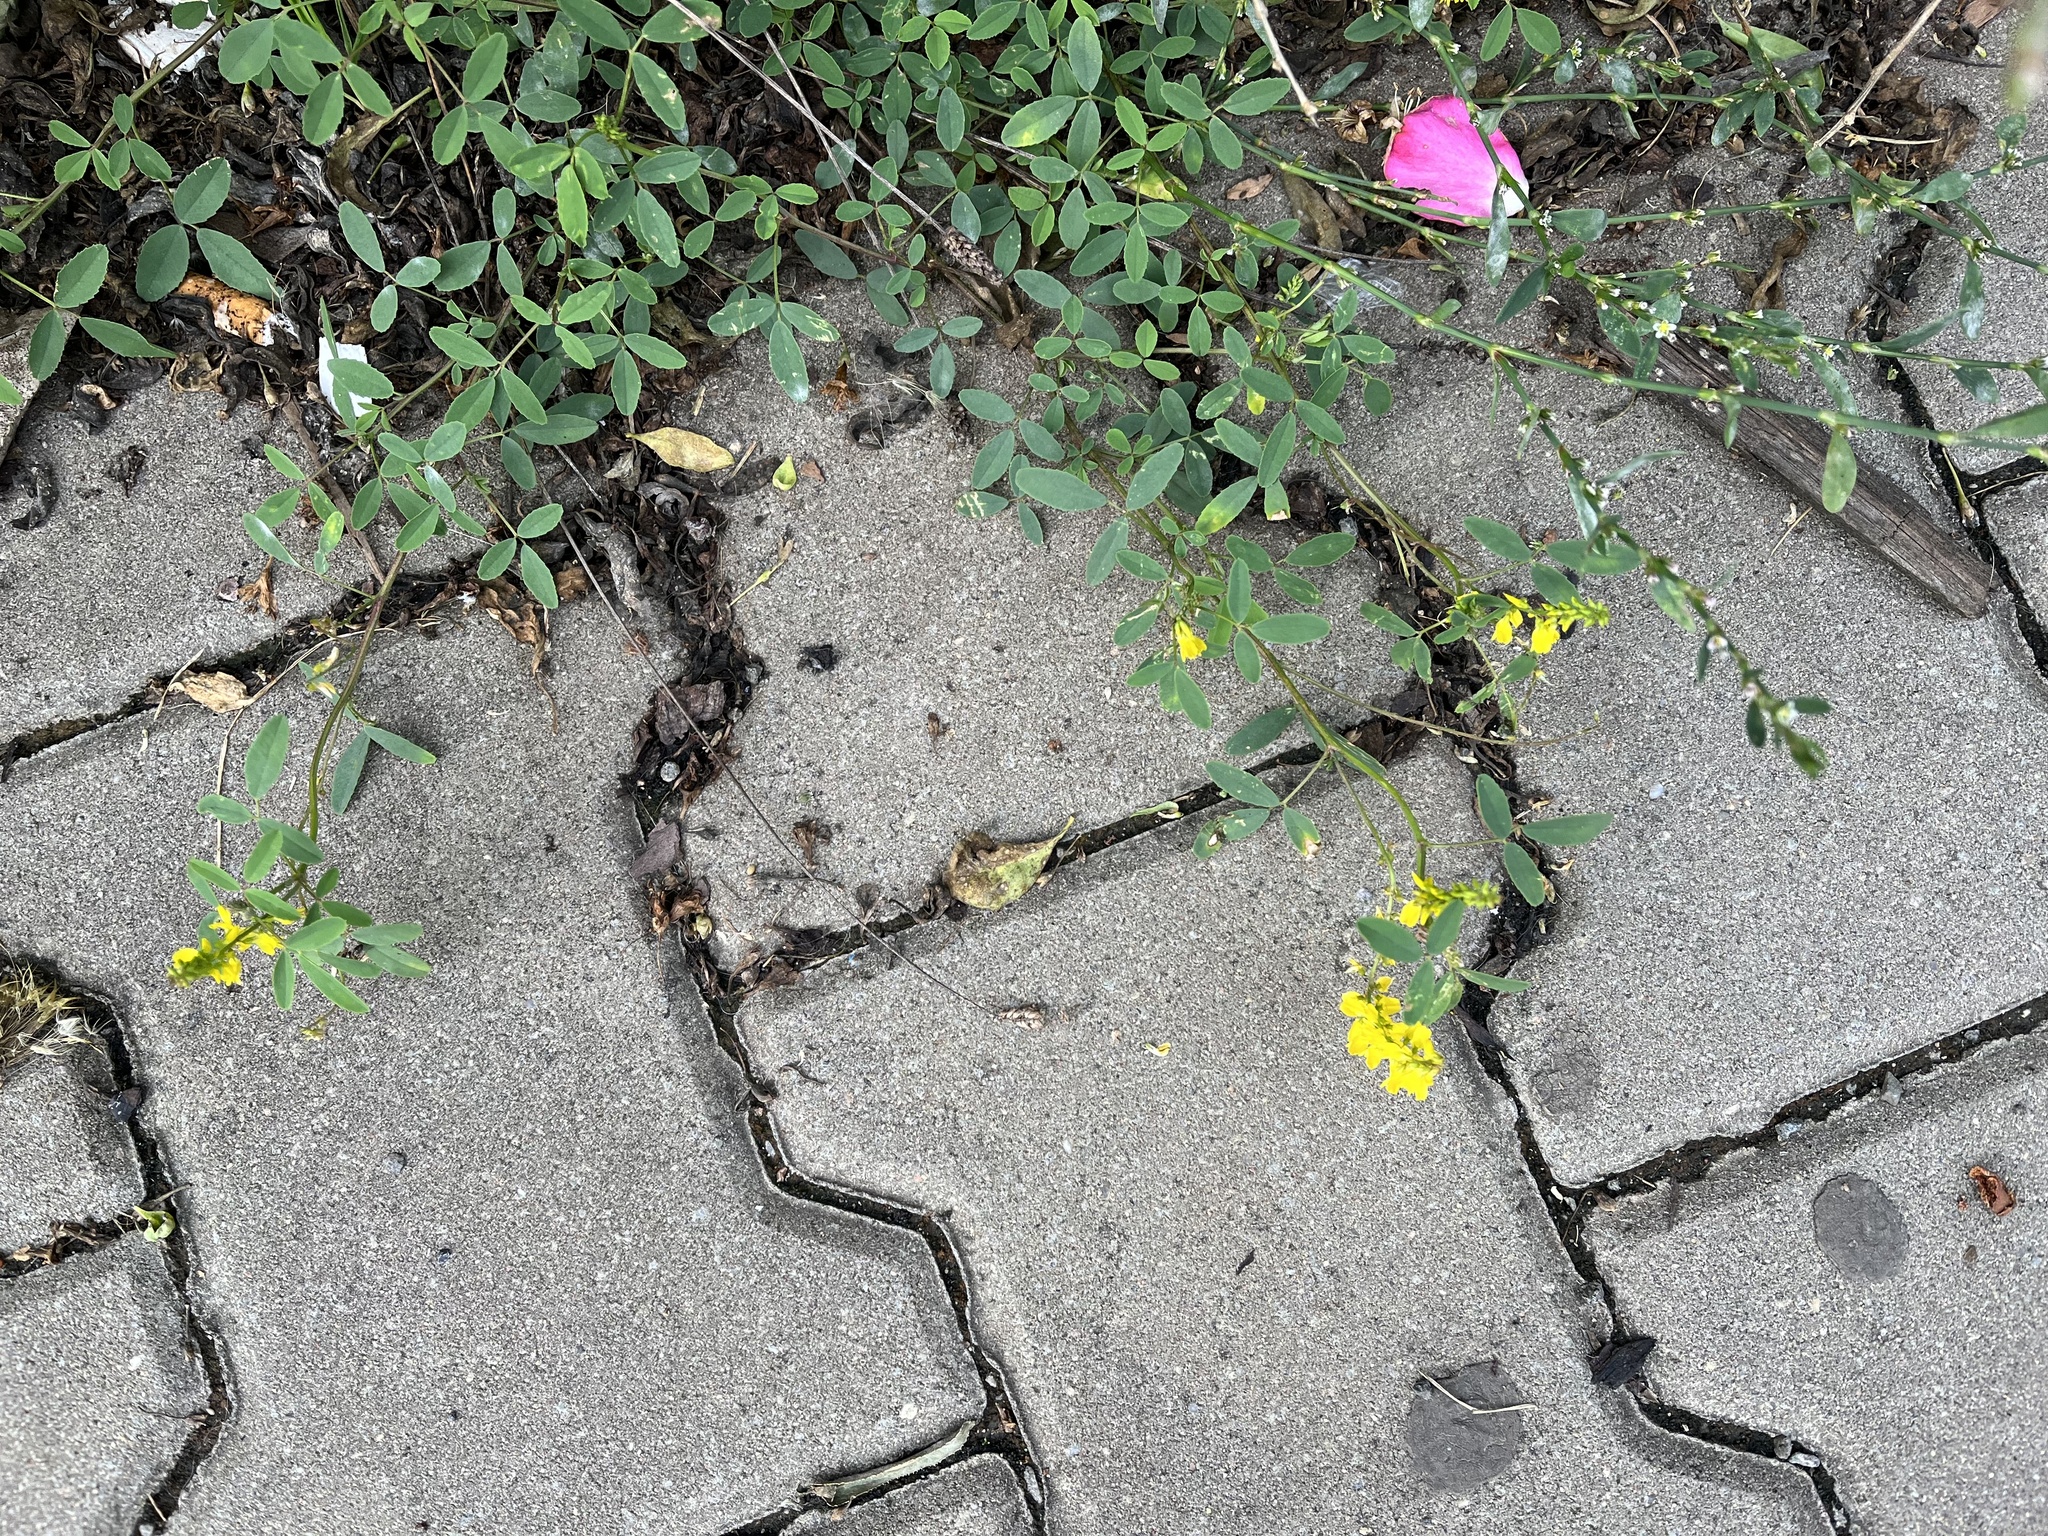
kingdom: Plantae
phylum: Tracheophyta
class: Magnoliopsida
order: Fabales
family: Fabaceae
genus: Melilotus
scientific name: Melilotus officinalis
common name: Sweetclover
